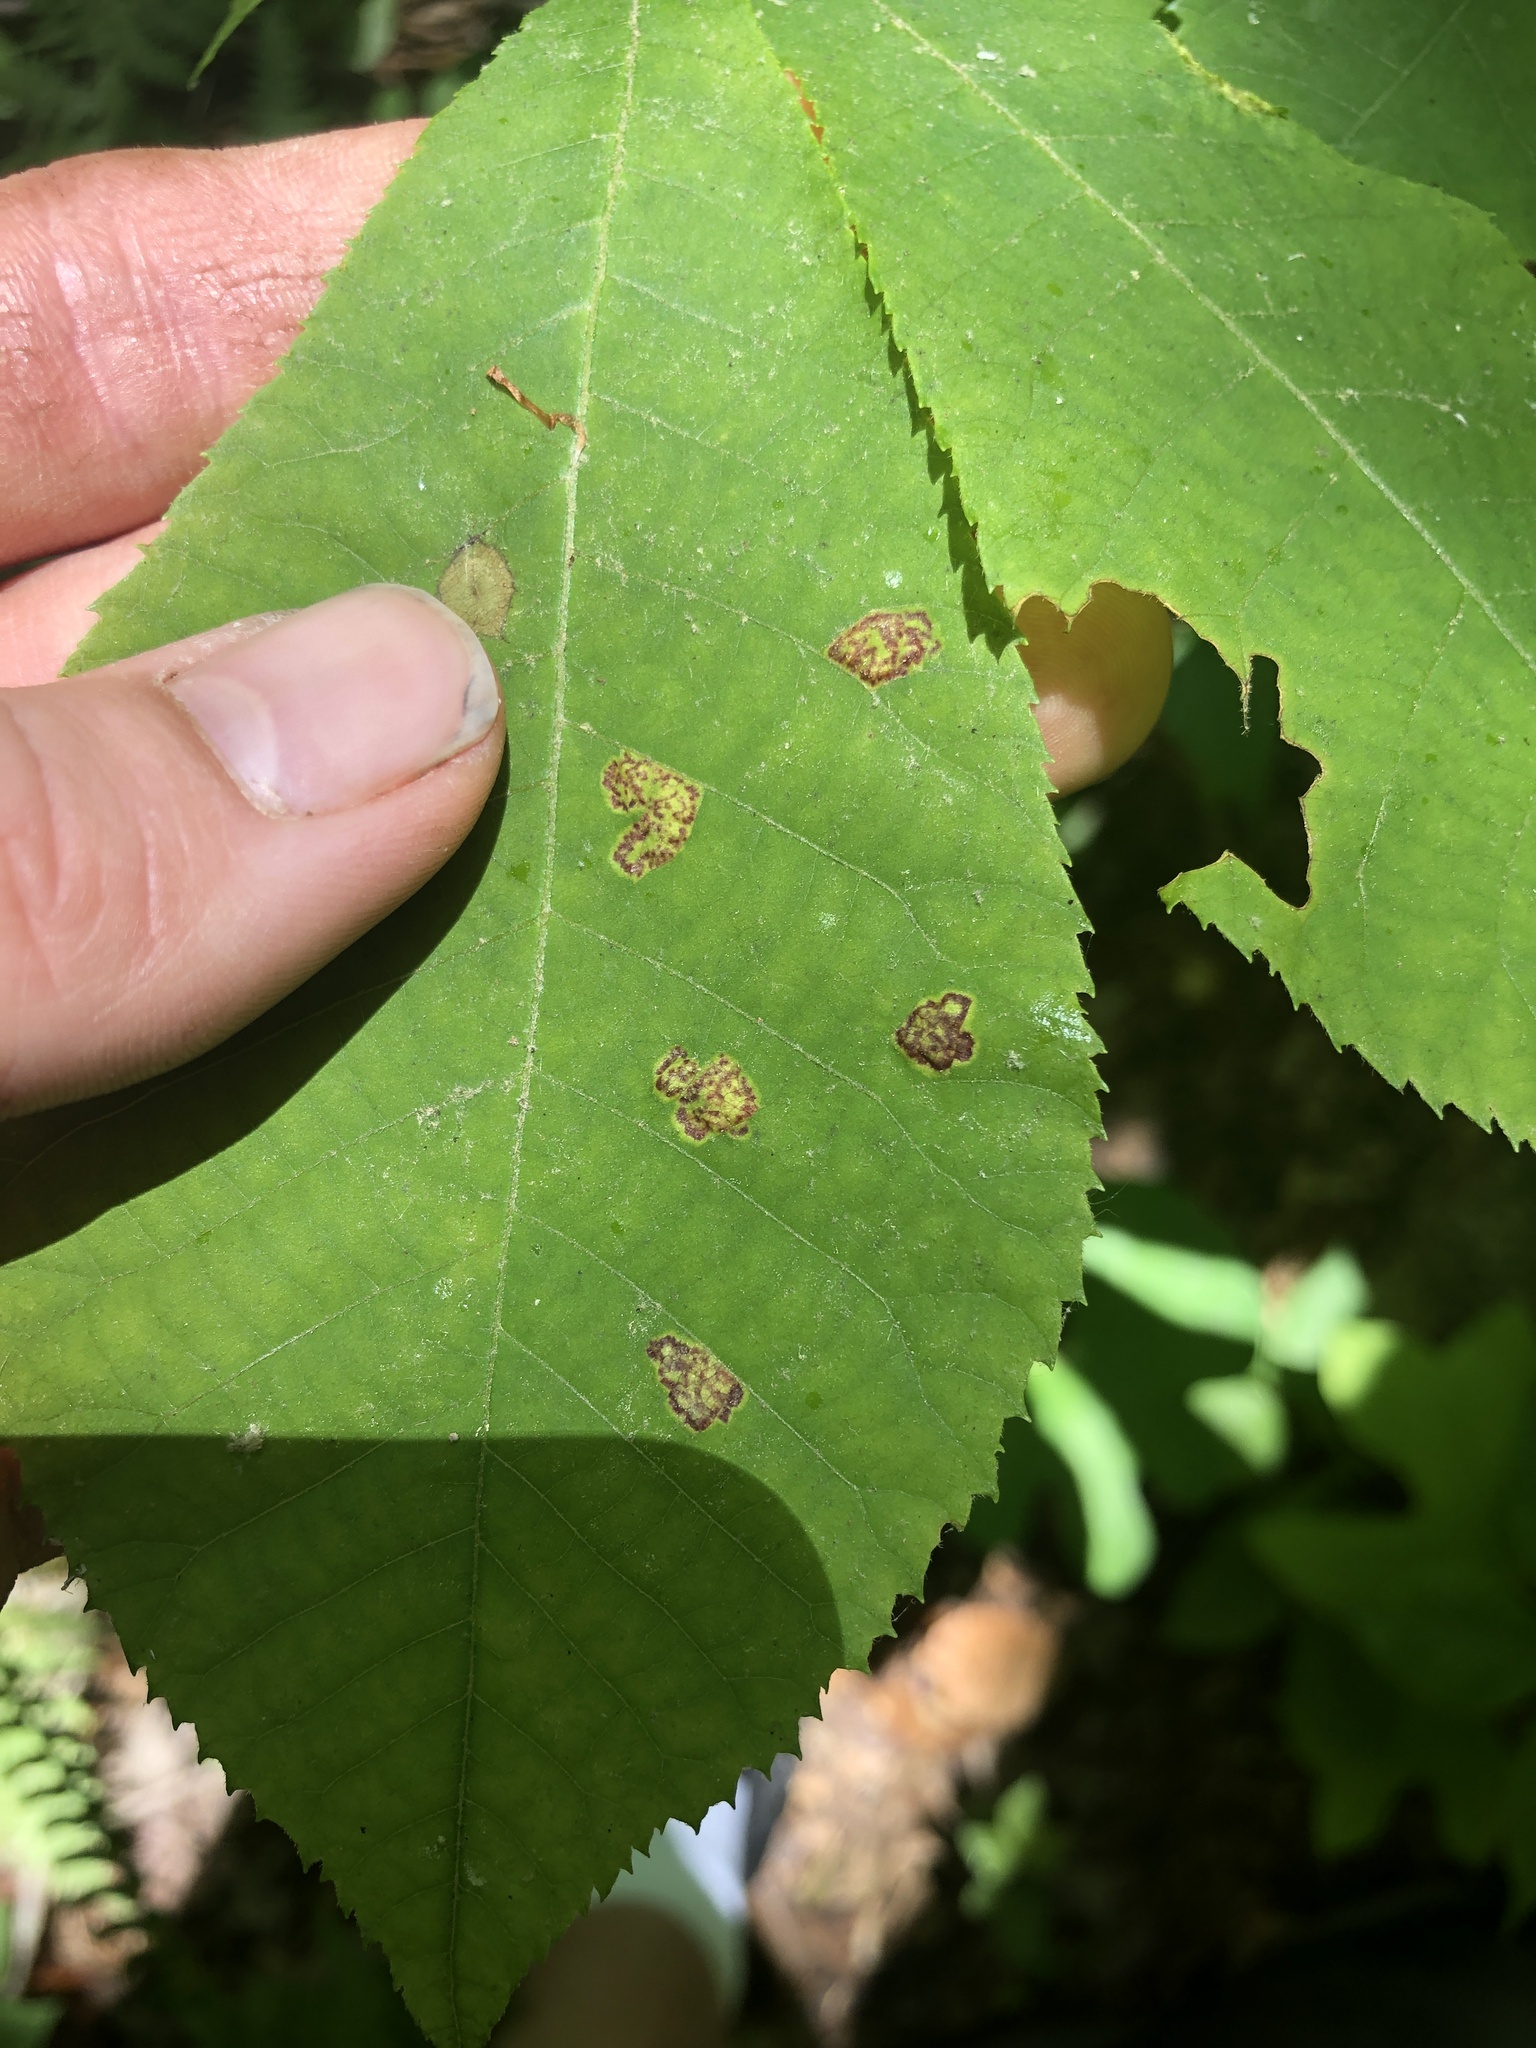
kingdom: Animalia
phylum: Arthropoda
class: Insecta
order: Diptera
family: Cecidomyiidae
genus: Gliaspilota
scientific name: Gliaspilota glutinosa
